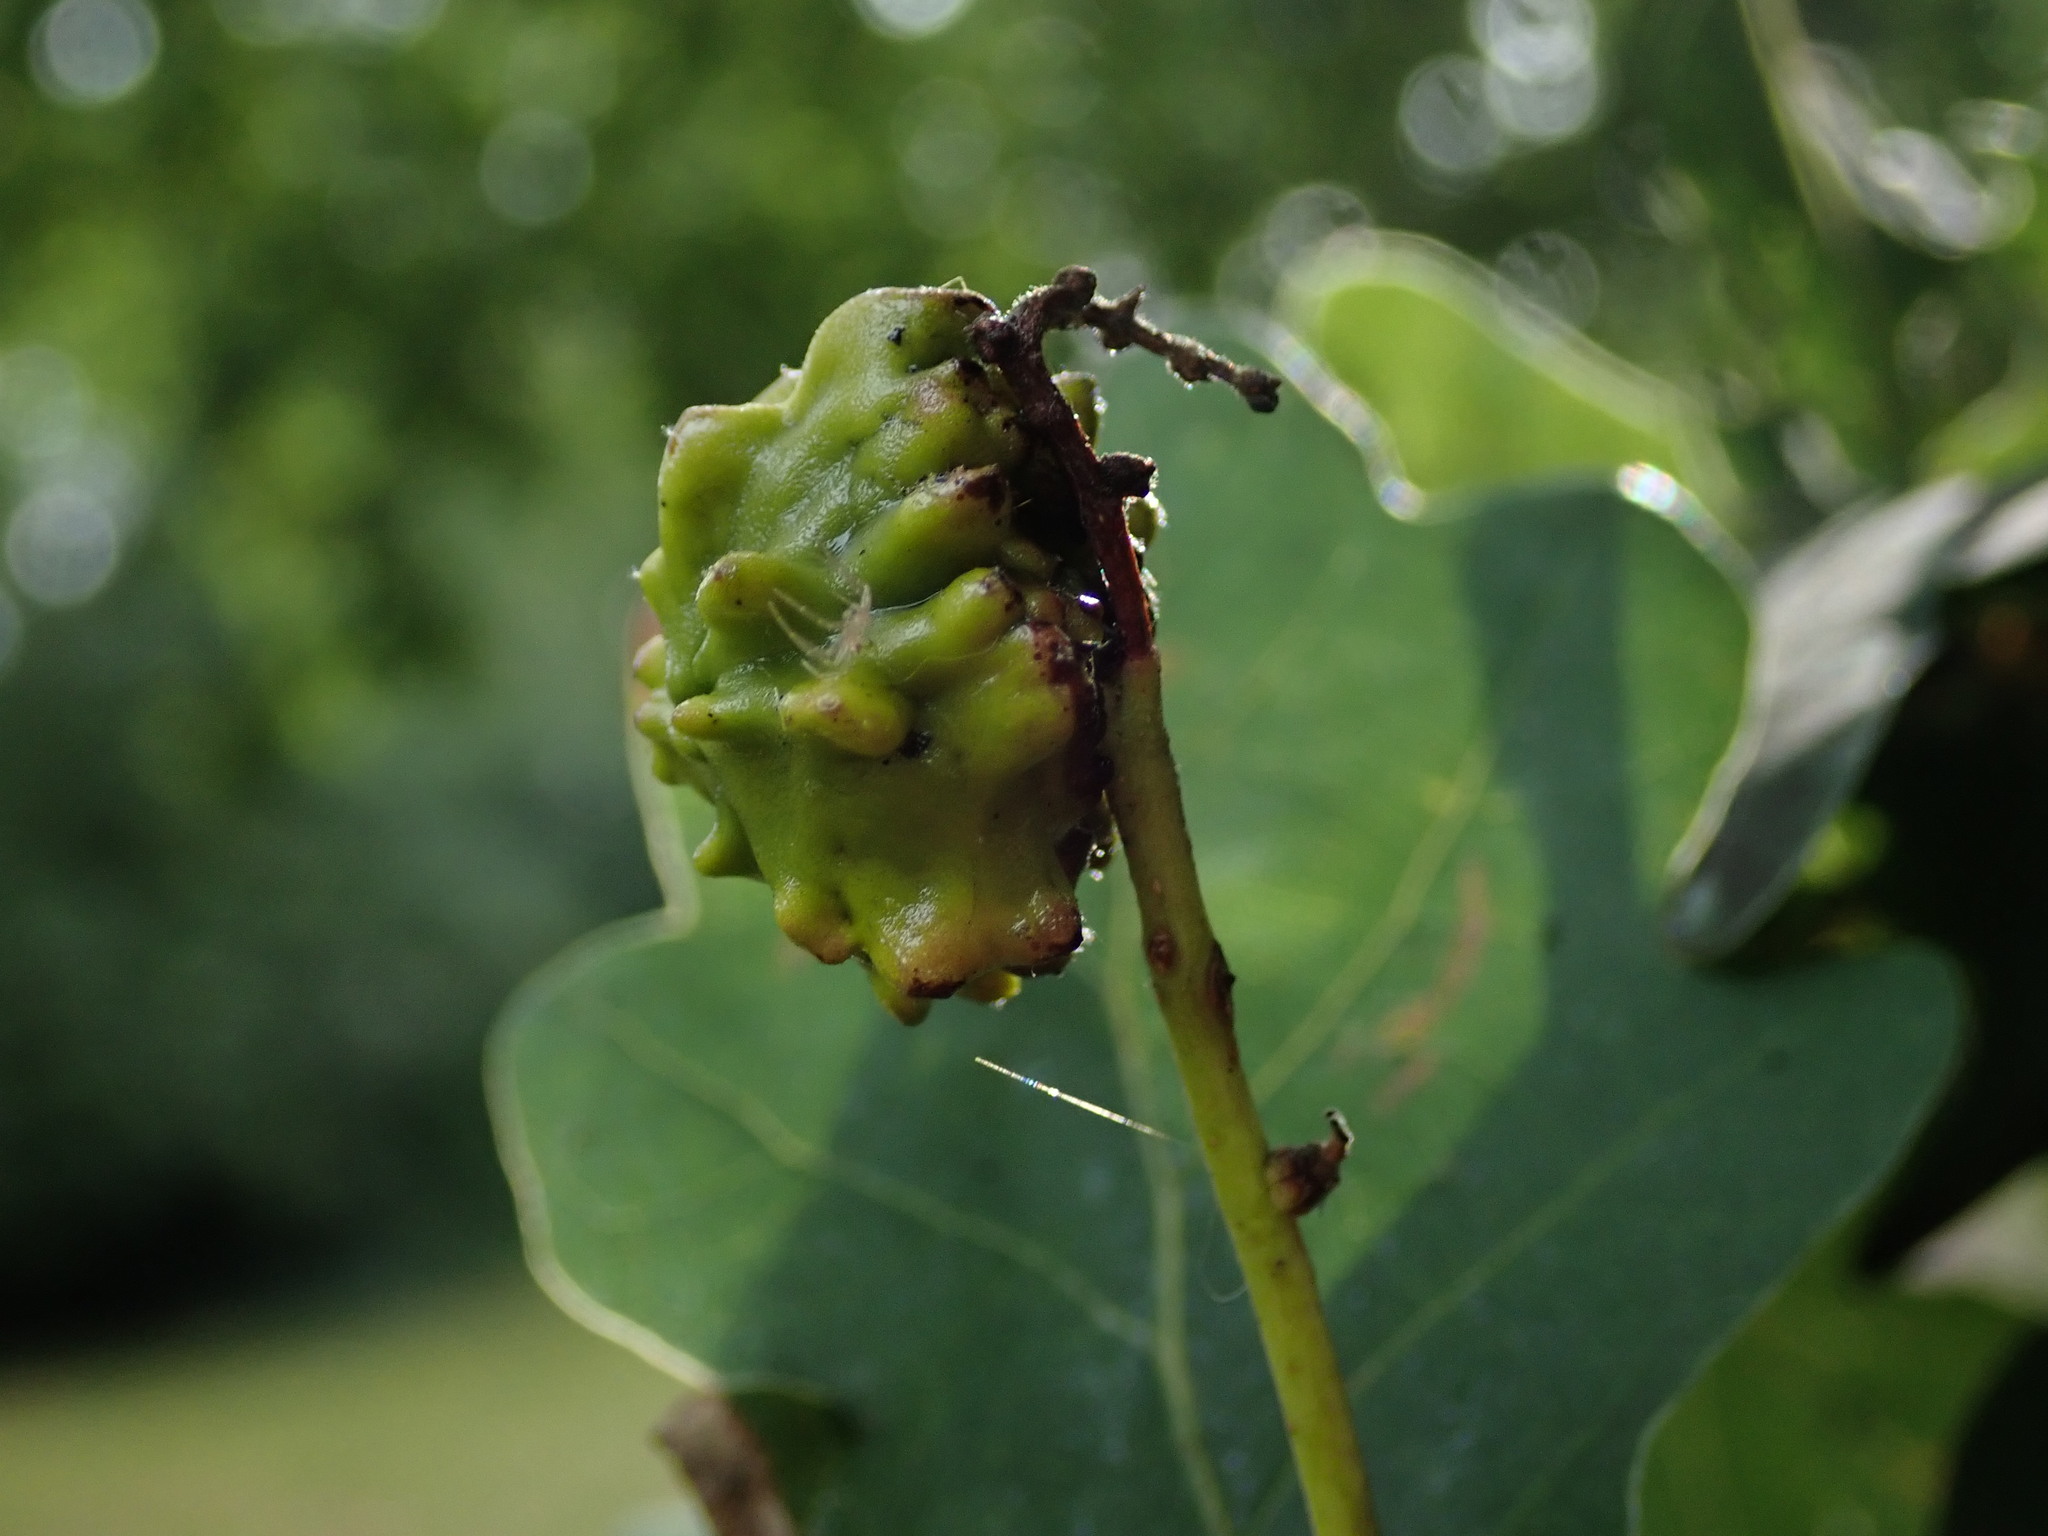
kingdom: Animalia
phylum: Arthropoda
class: Insecta
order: Hymenoptera
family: Cynipidae
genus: Andricus
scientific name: Andricus quercuscalicis
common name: Knopper gall
